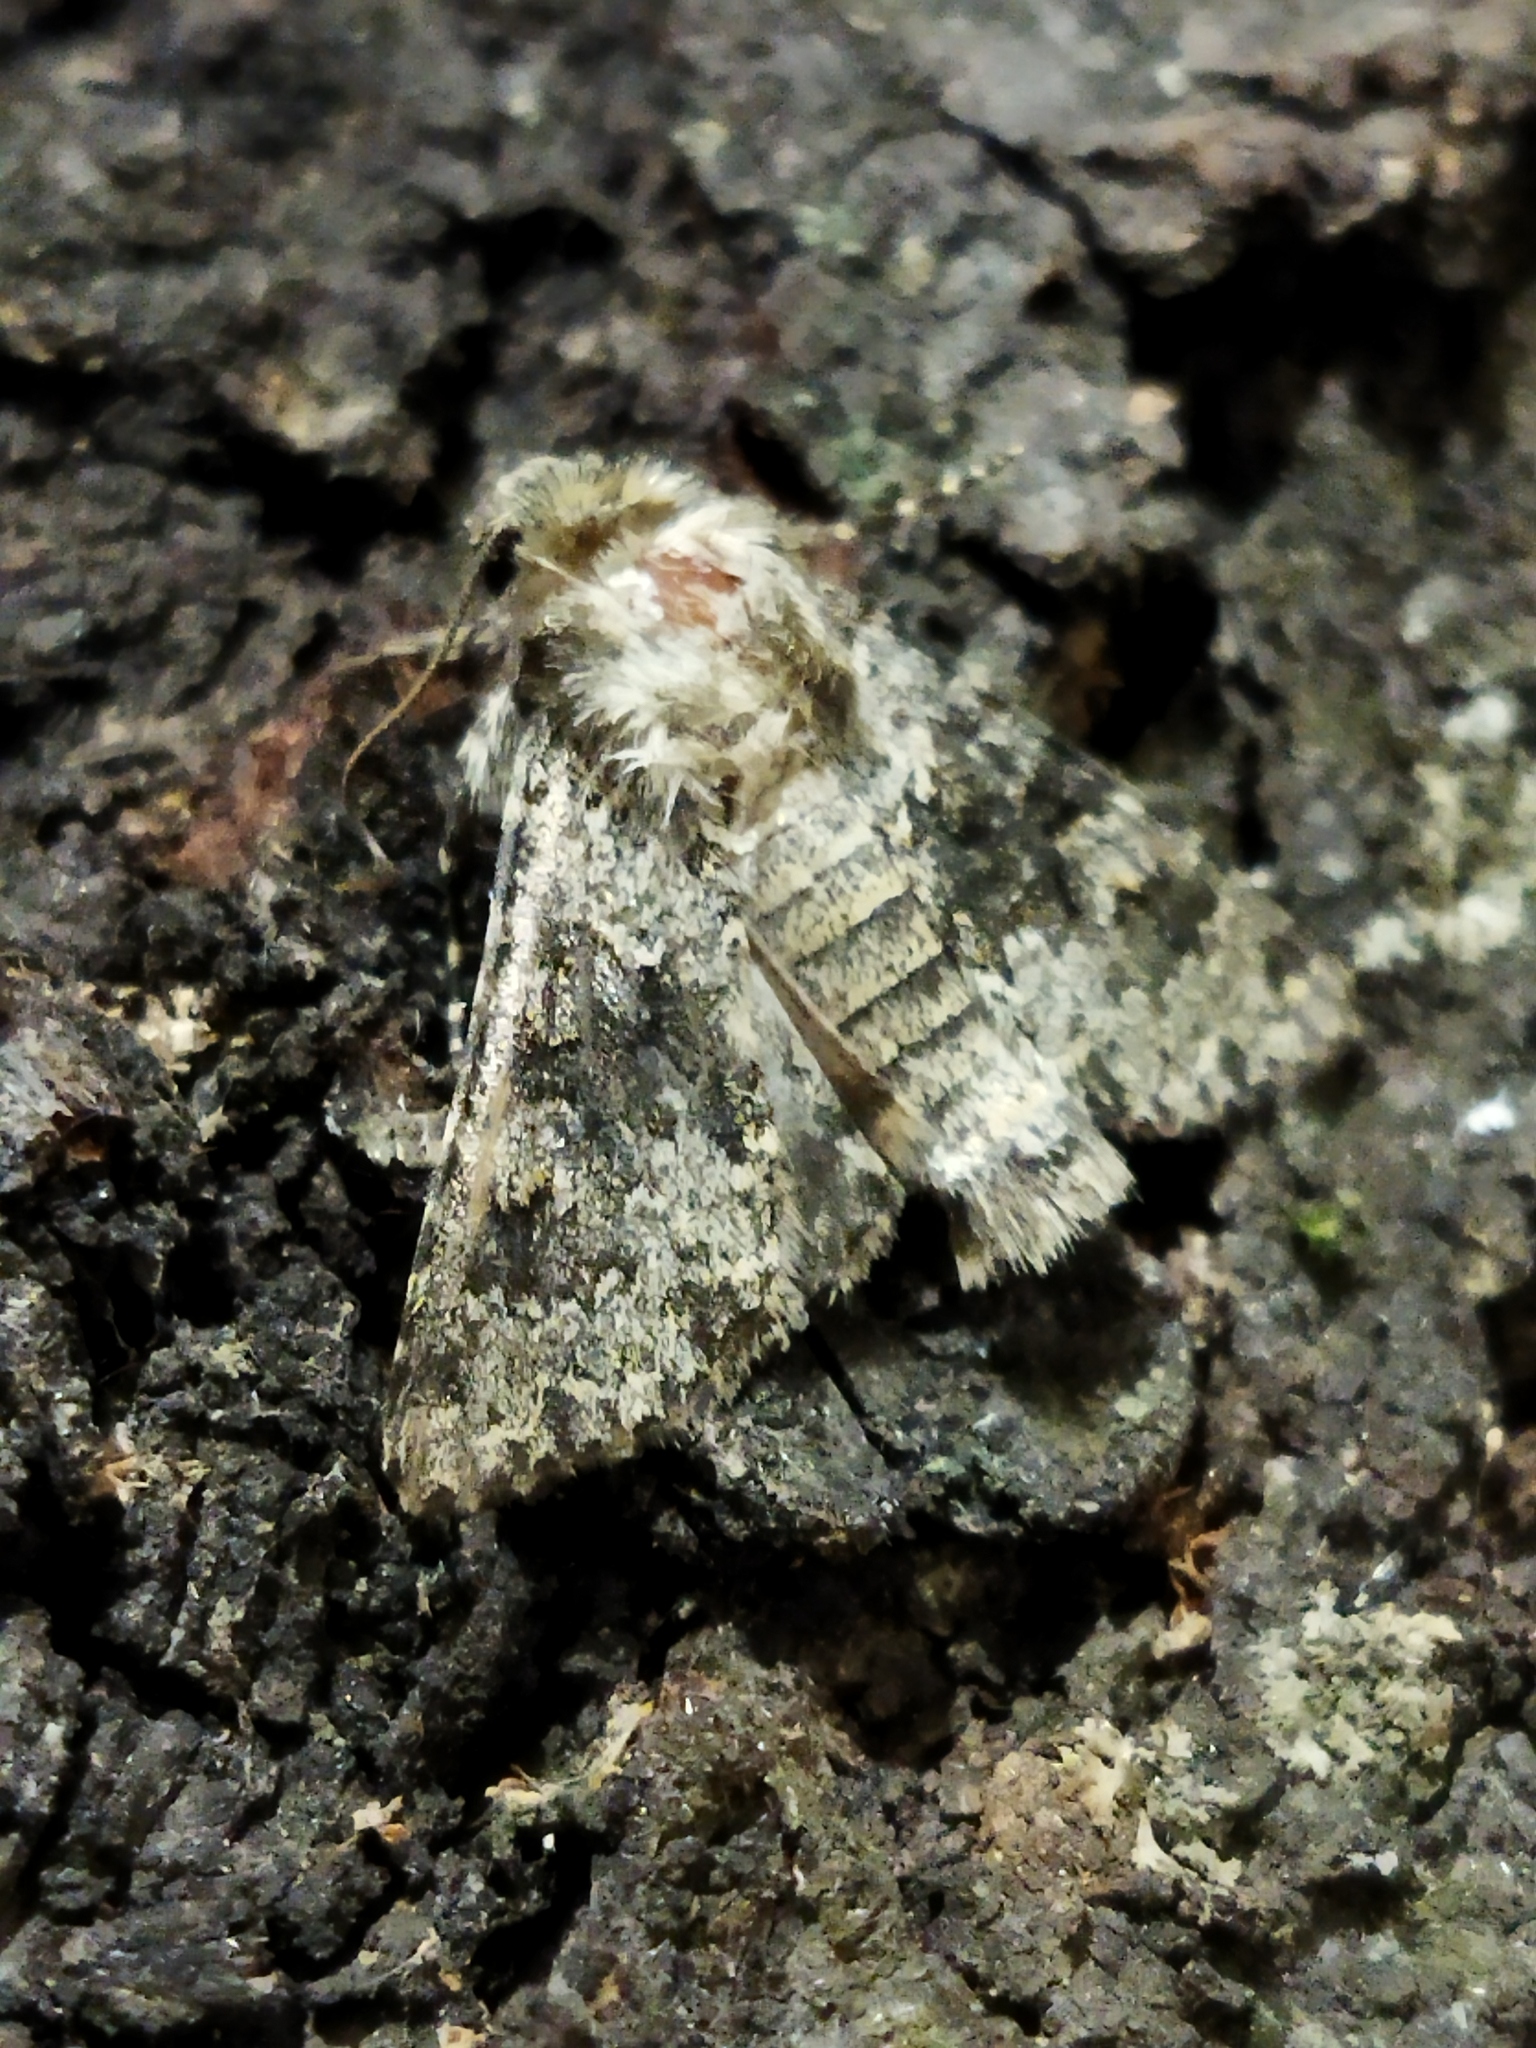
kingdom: Animalia
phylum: Arthropoda
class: Insecta
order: Lepidoptera
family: Noctuidae
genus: Hecatera
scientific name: Hecatera dysodea
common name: Small ranunculus
